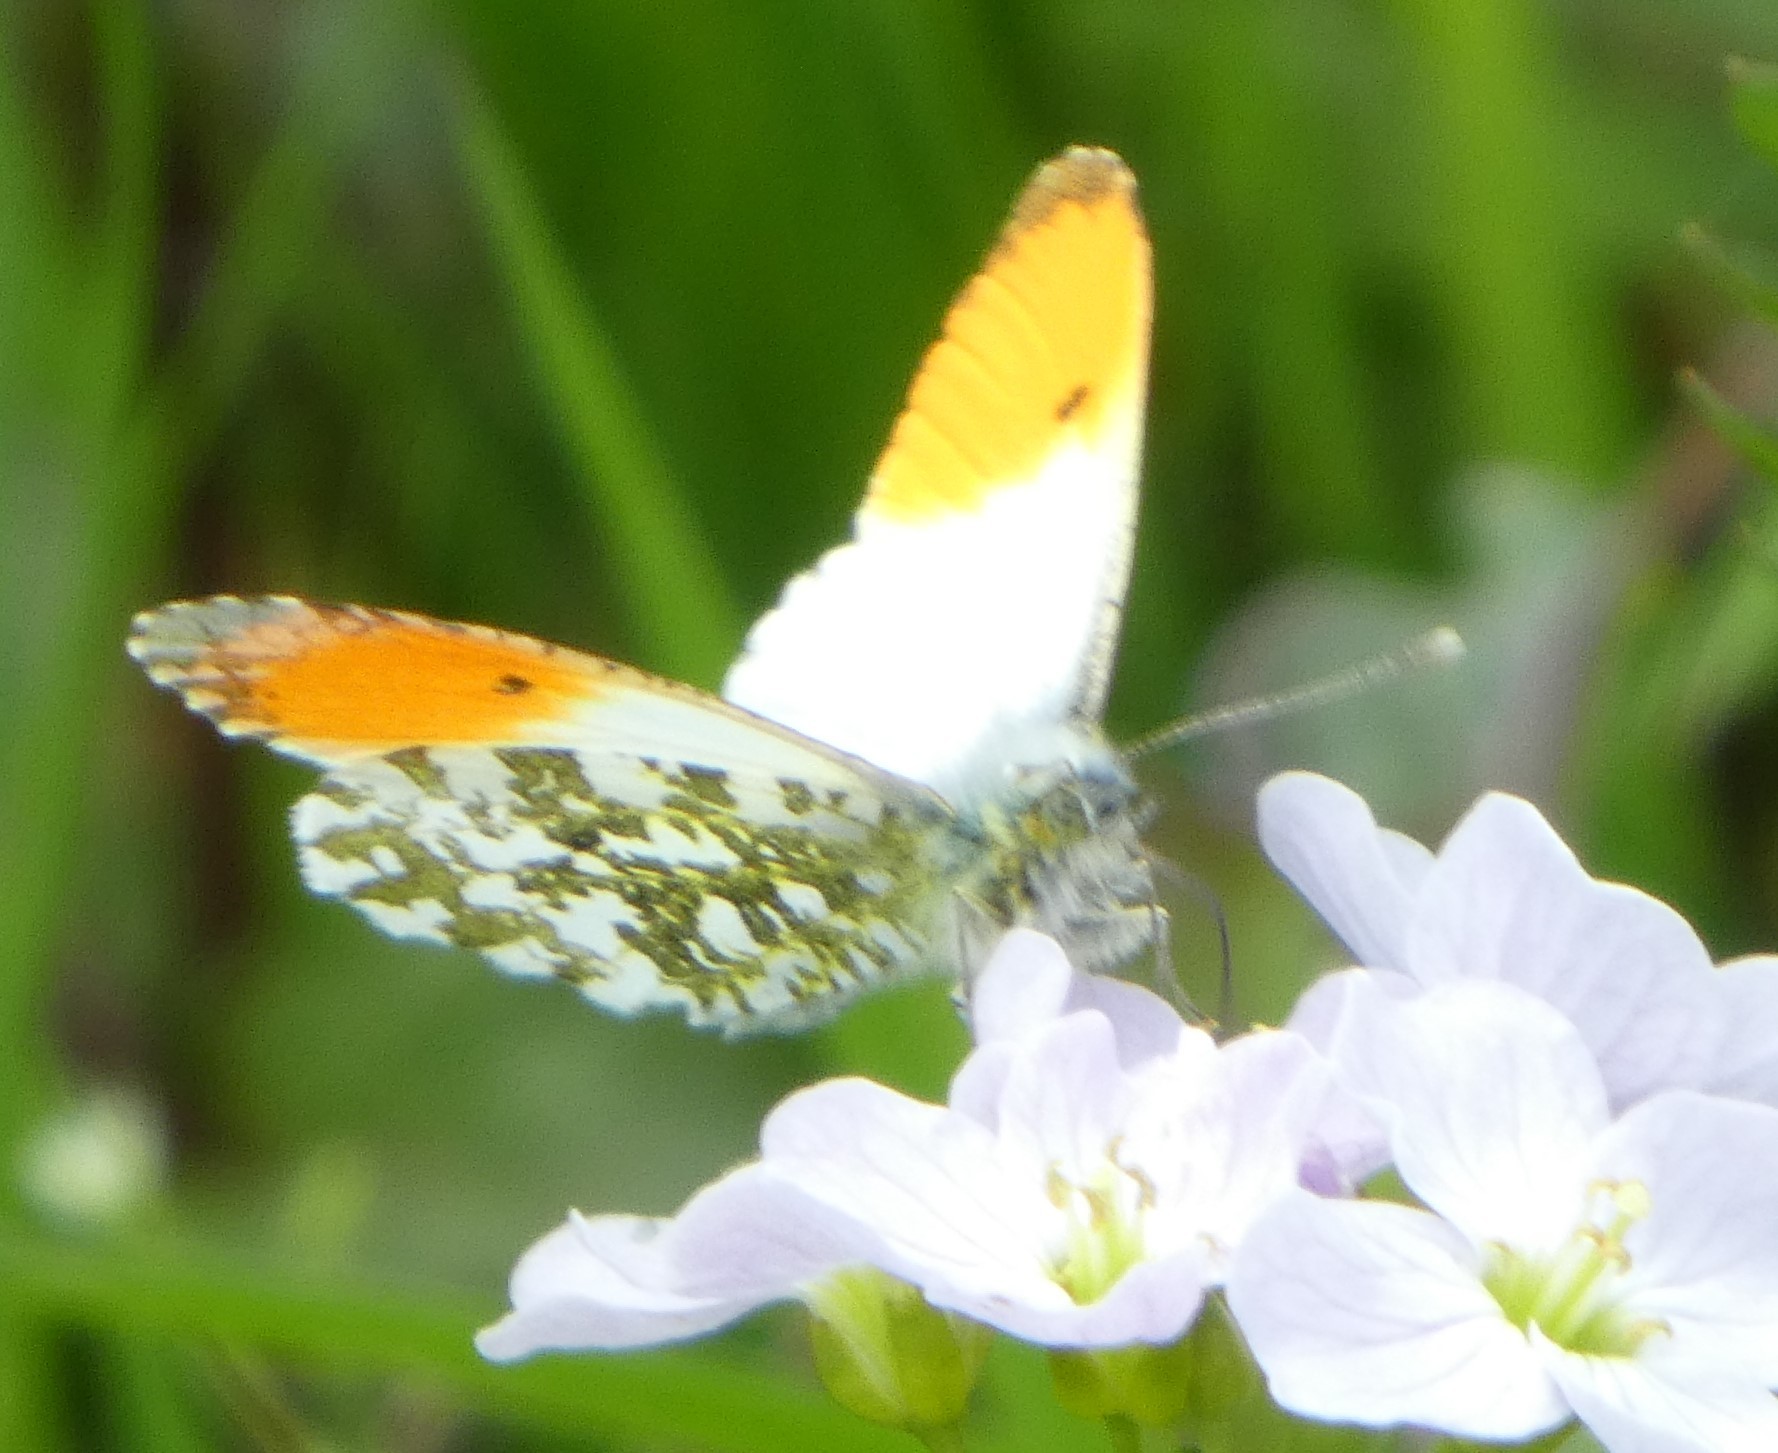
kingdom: Animalia
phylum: Arthropoda
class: Insecta
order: Lepidoptera
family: Pieridae
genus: Anthocharis
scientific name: Anthocharis cardamines
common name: Orange-tip
